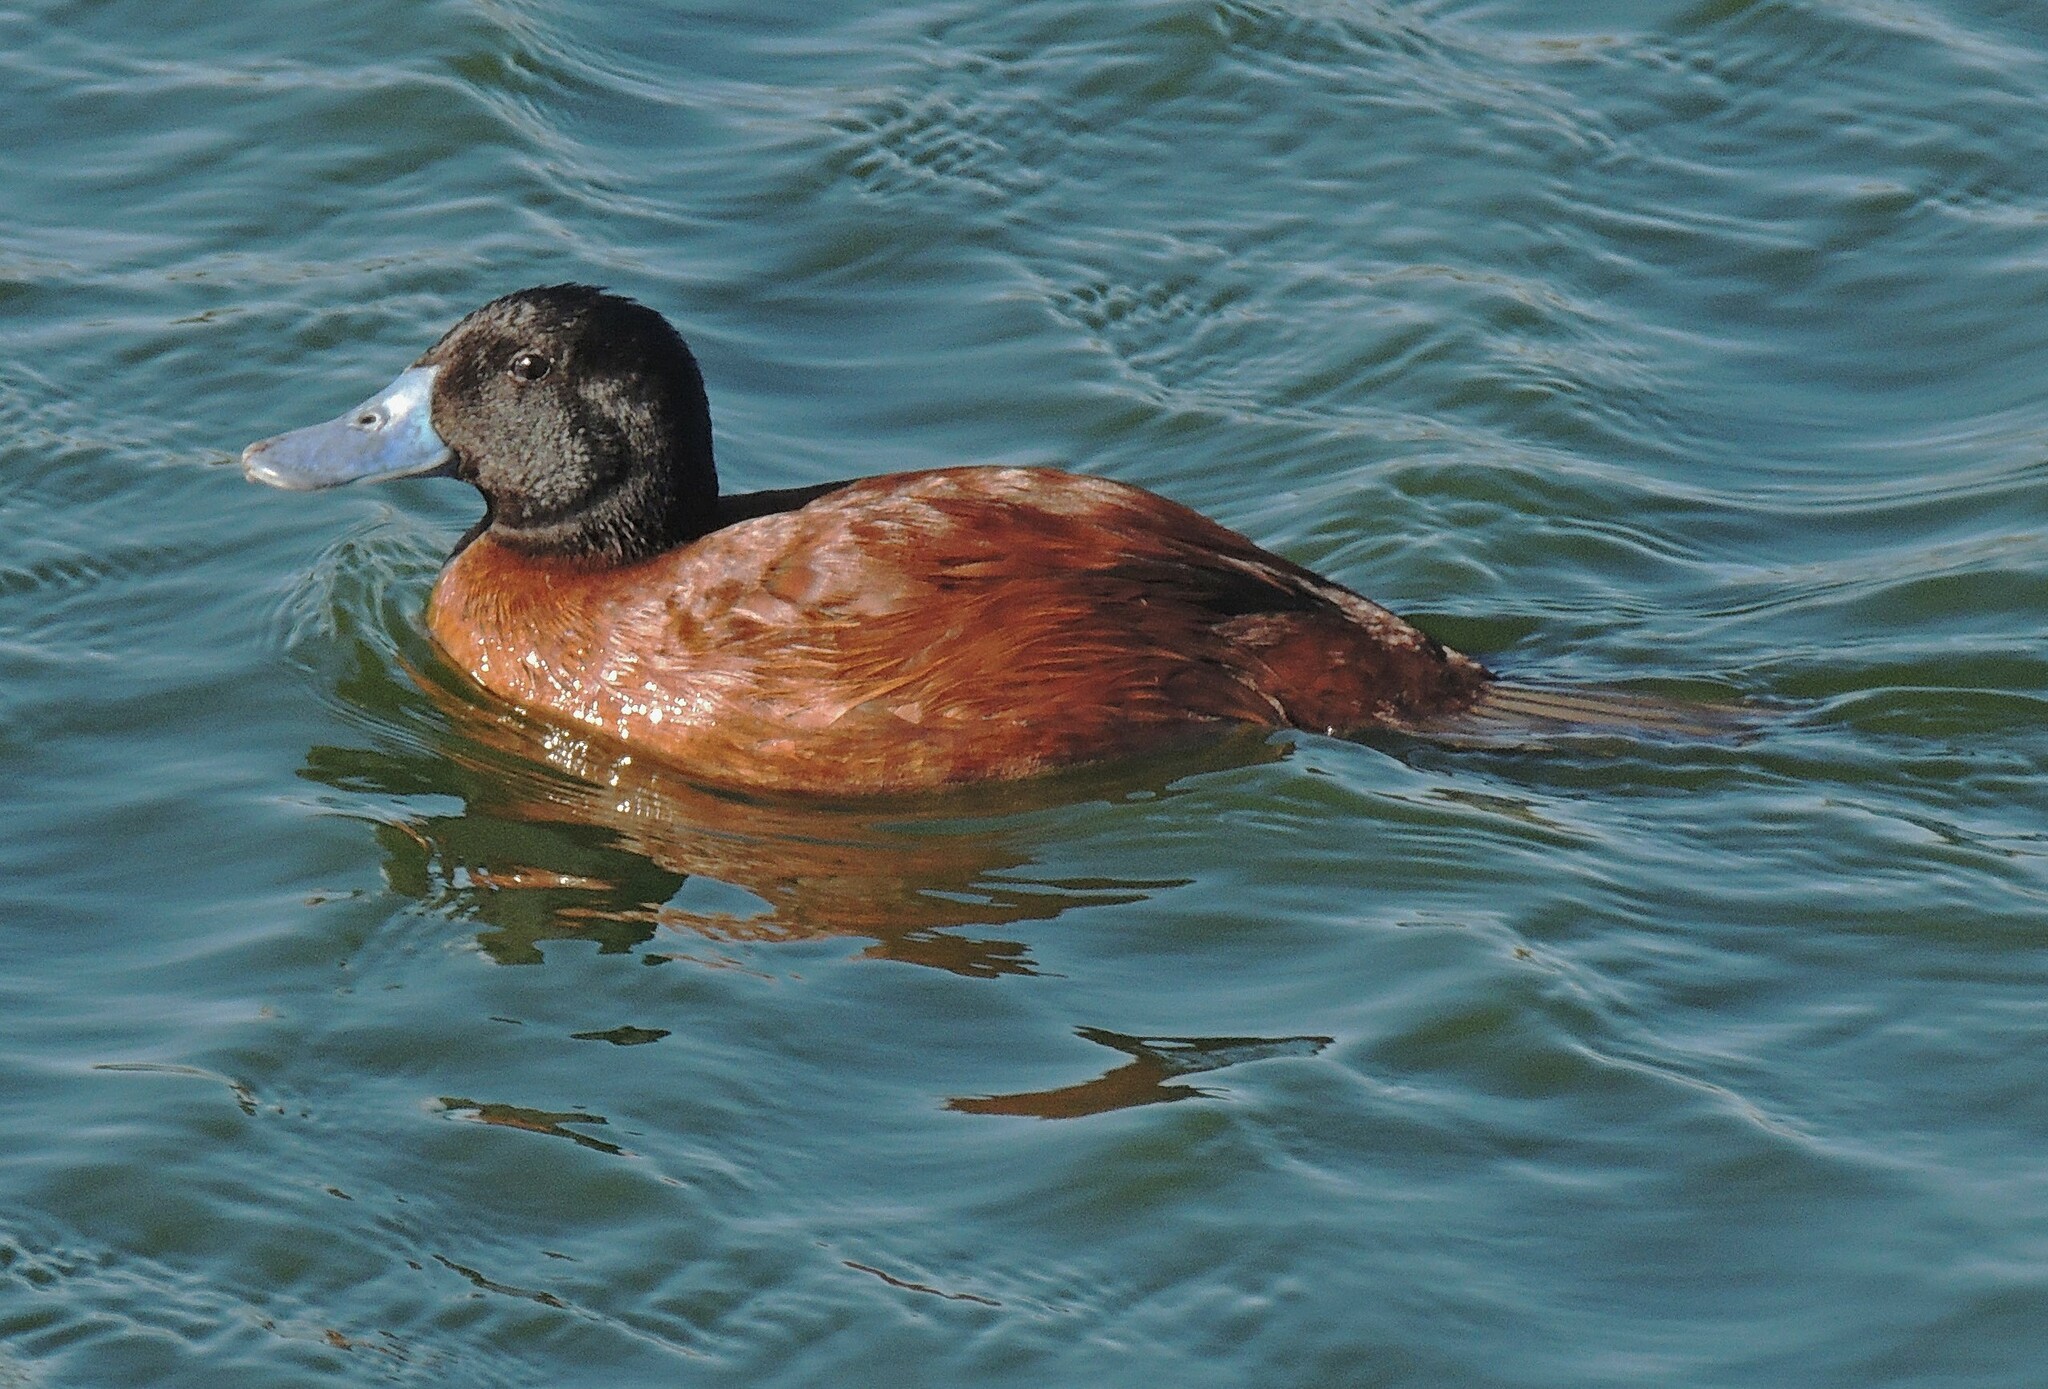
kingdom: Animalia
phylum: Chordata
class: Aves
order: Anseriformes
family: Anatidae
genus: Oxyura
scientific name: Oxyura vittata
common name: Lake duck
